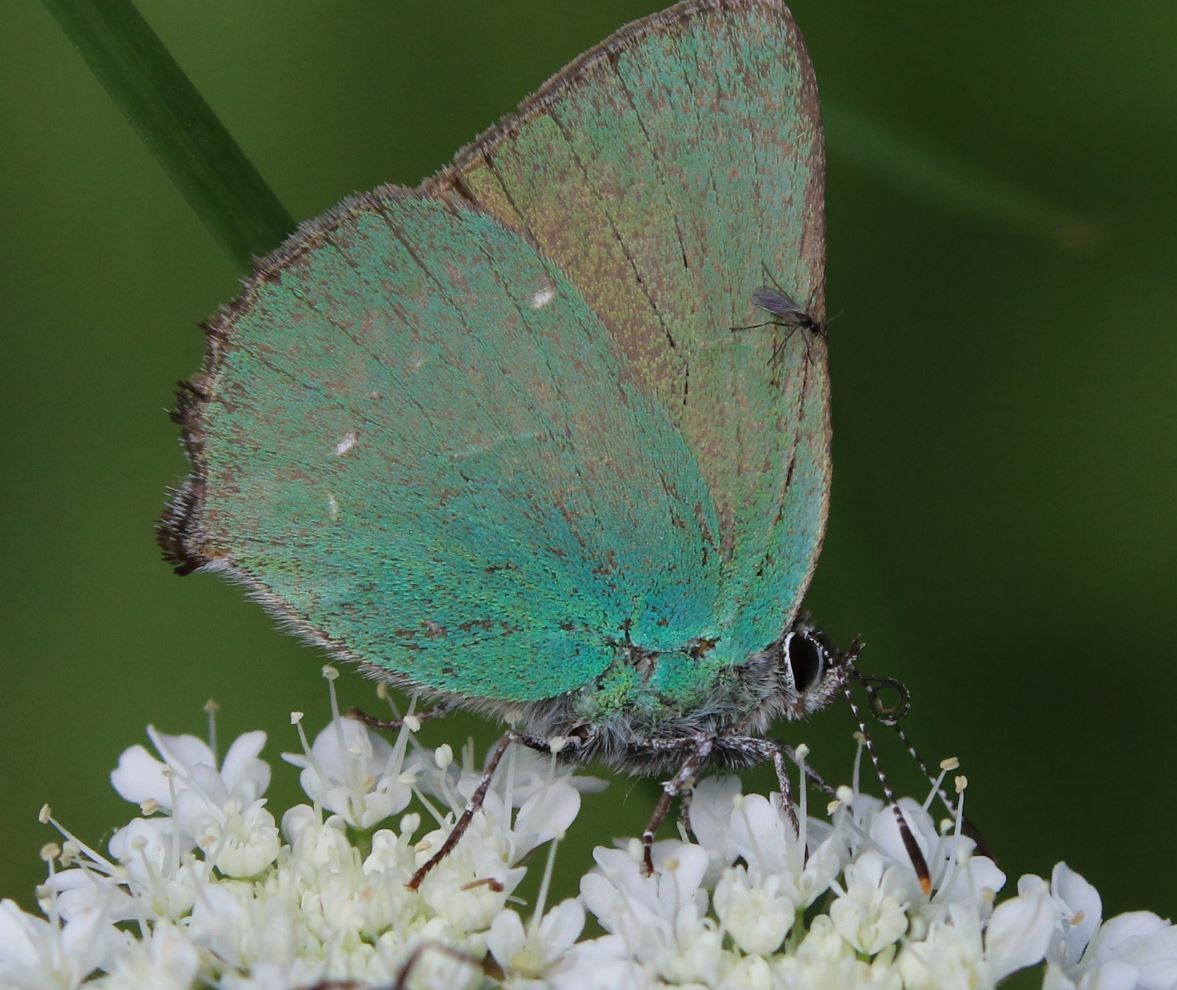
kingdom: Animalia
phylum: Arthropoda
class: Insecta
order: Lepidoptera
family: Lycaenidae
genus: Callophrys
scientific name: Callophrys rubi
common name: Green hairstreak
